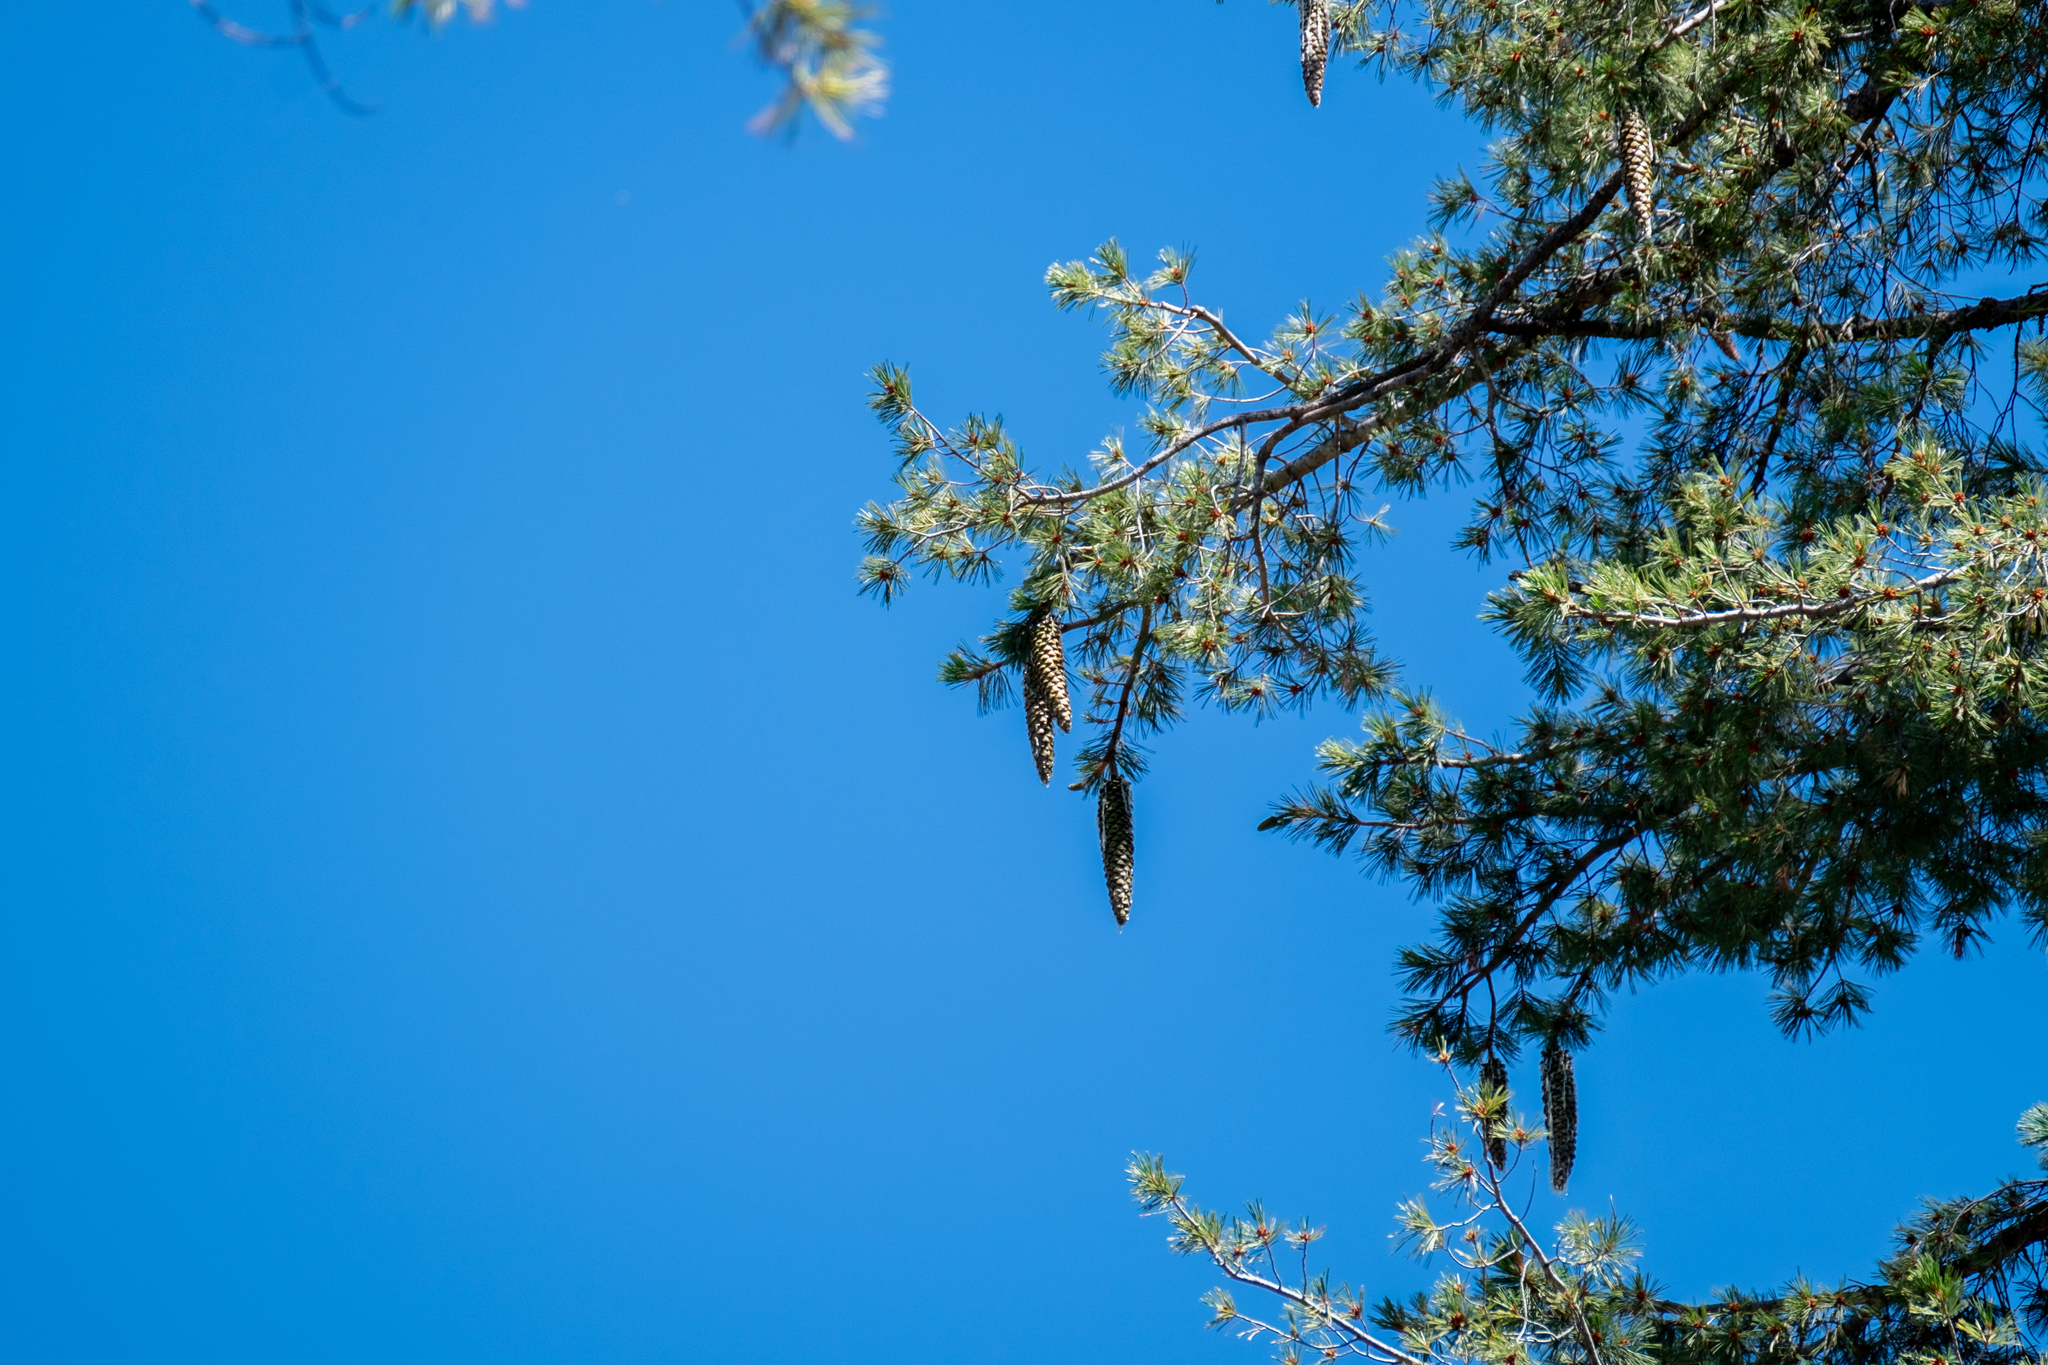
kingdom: Plantae
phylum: Tracheophyta
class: Pinopsida
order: Pinales
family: Pinaceae
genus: Pinus
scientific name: Pinus lambertiana
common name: Sugar pine
